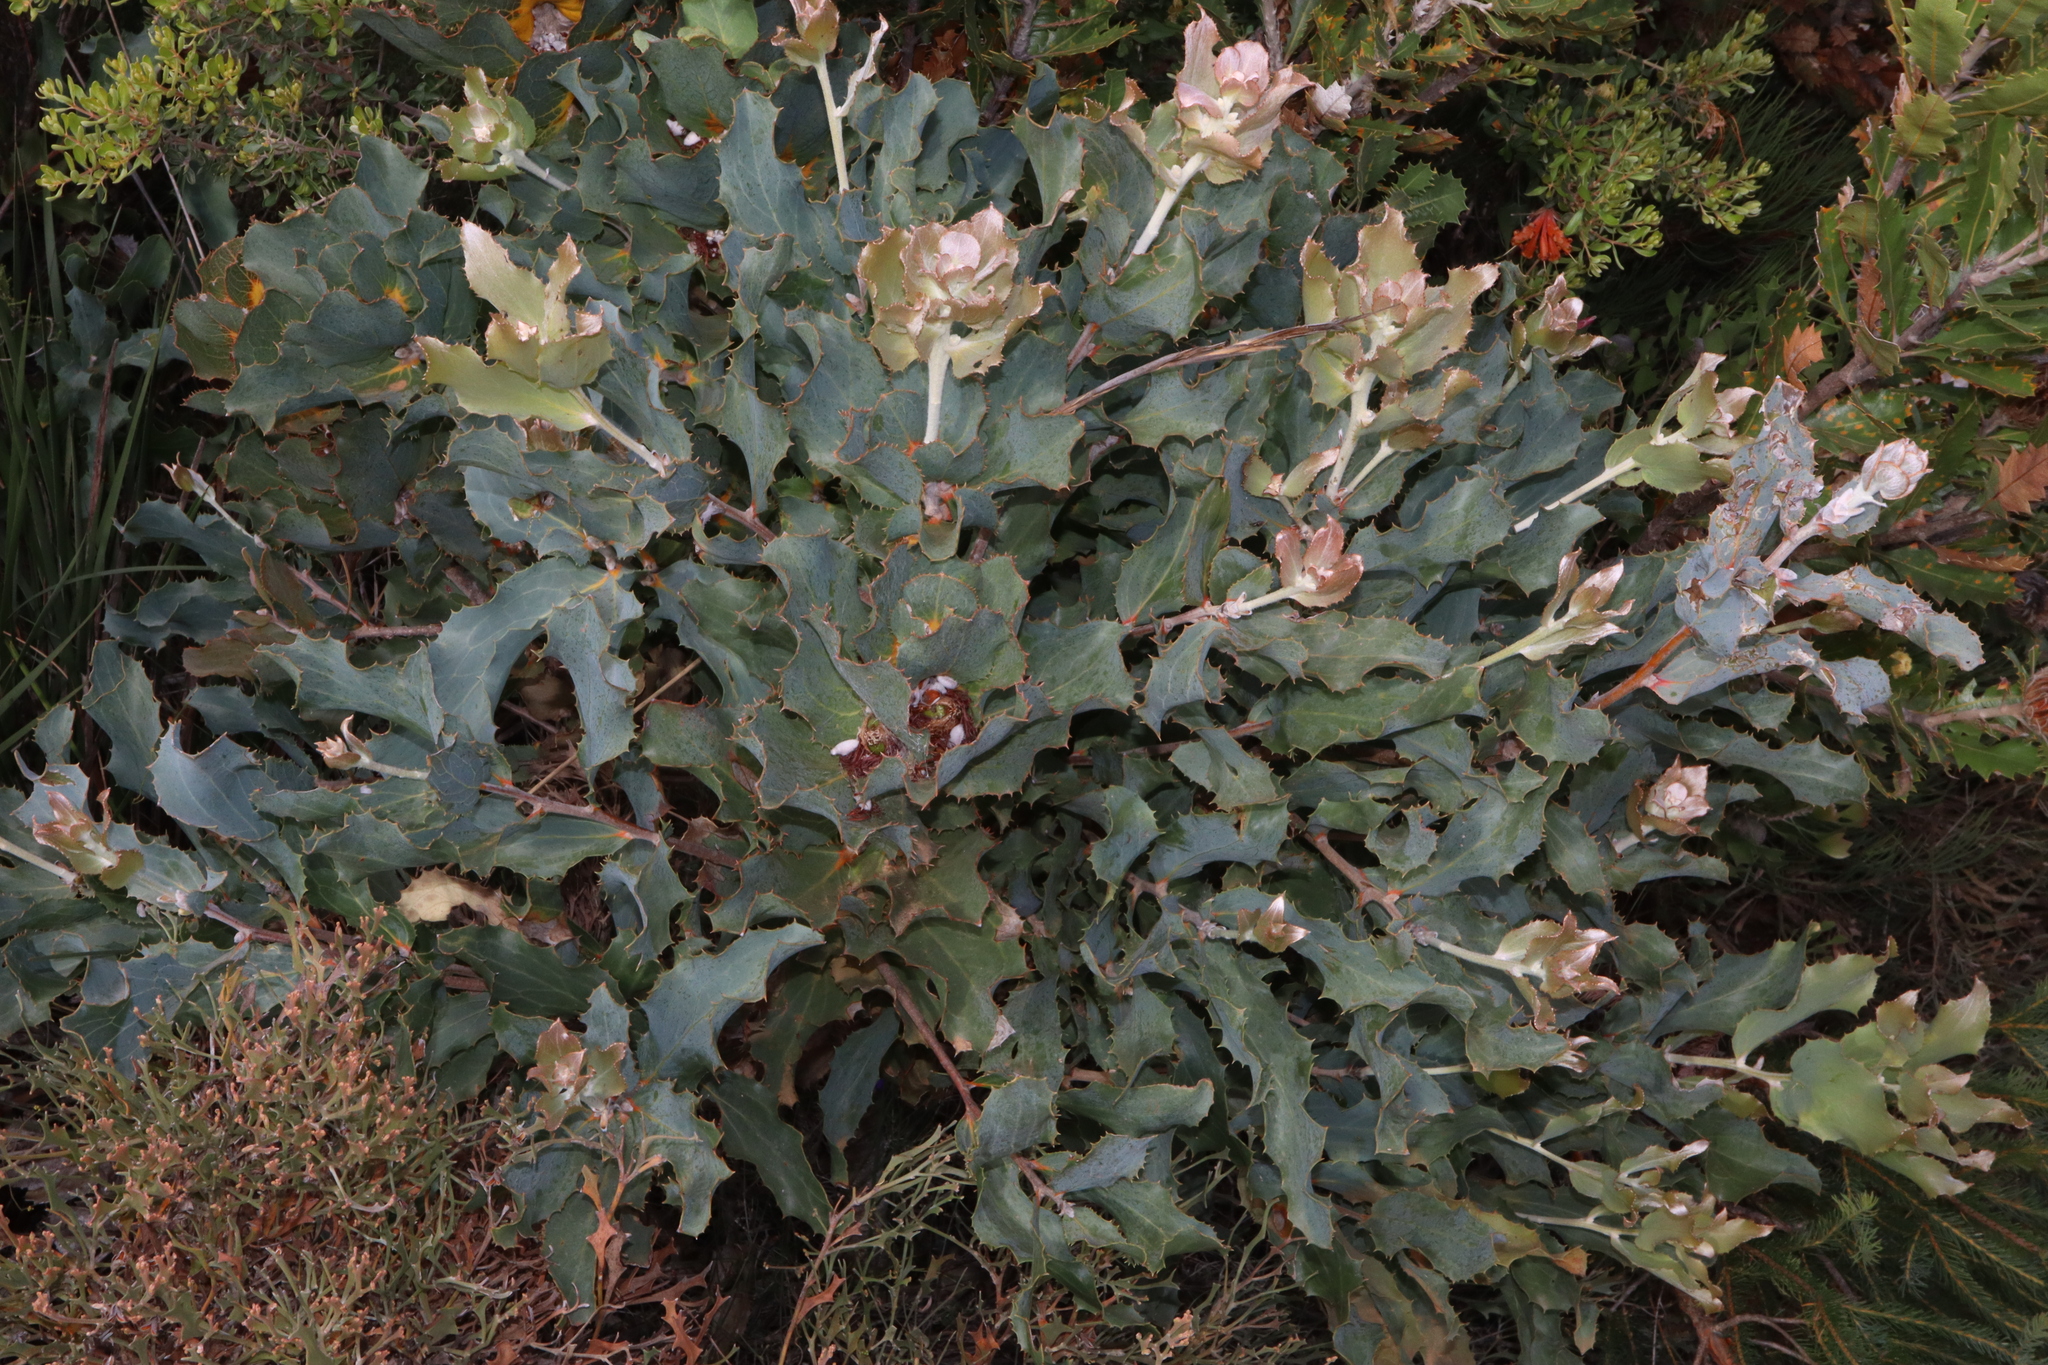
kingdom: Plantae
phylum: Tracheophyta
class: Magnoliopsida
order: Proteales
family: Proteaceae
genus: Hakea
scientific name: Hakea victoria
